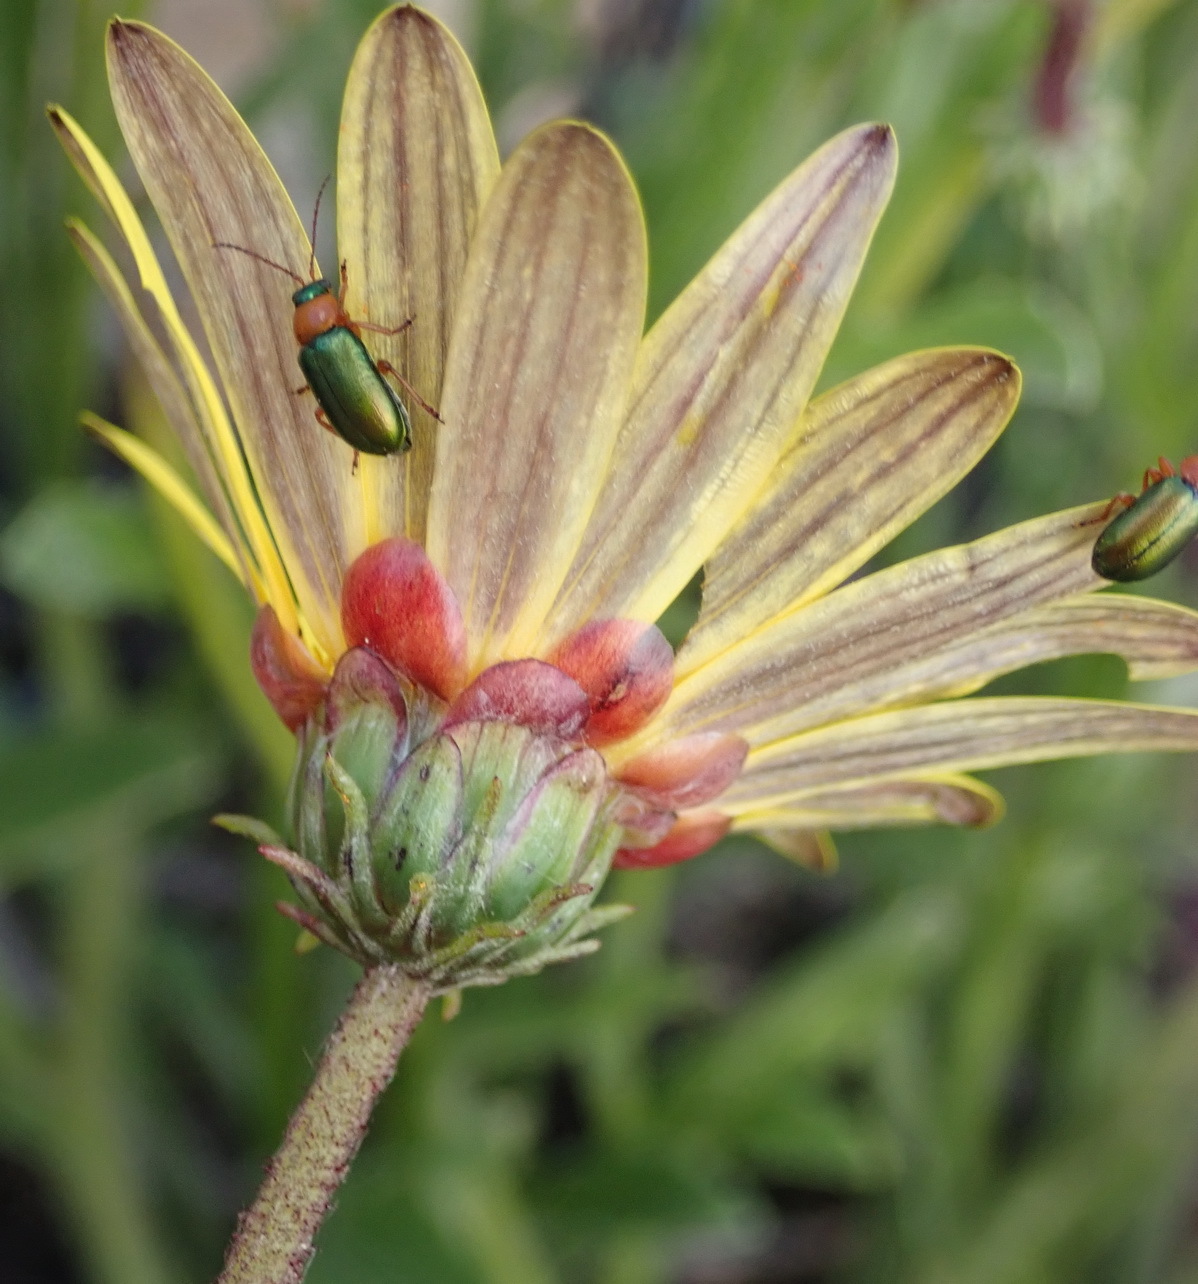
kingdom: Plantae
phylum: Tracheophyta
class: Magnoliopsida
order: Asterales
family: Asteraceae
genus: Arctotis
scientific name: Arctotis lanceolata
